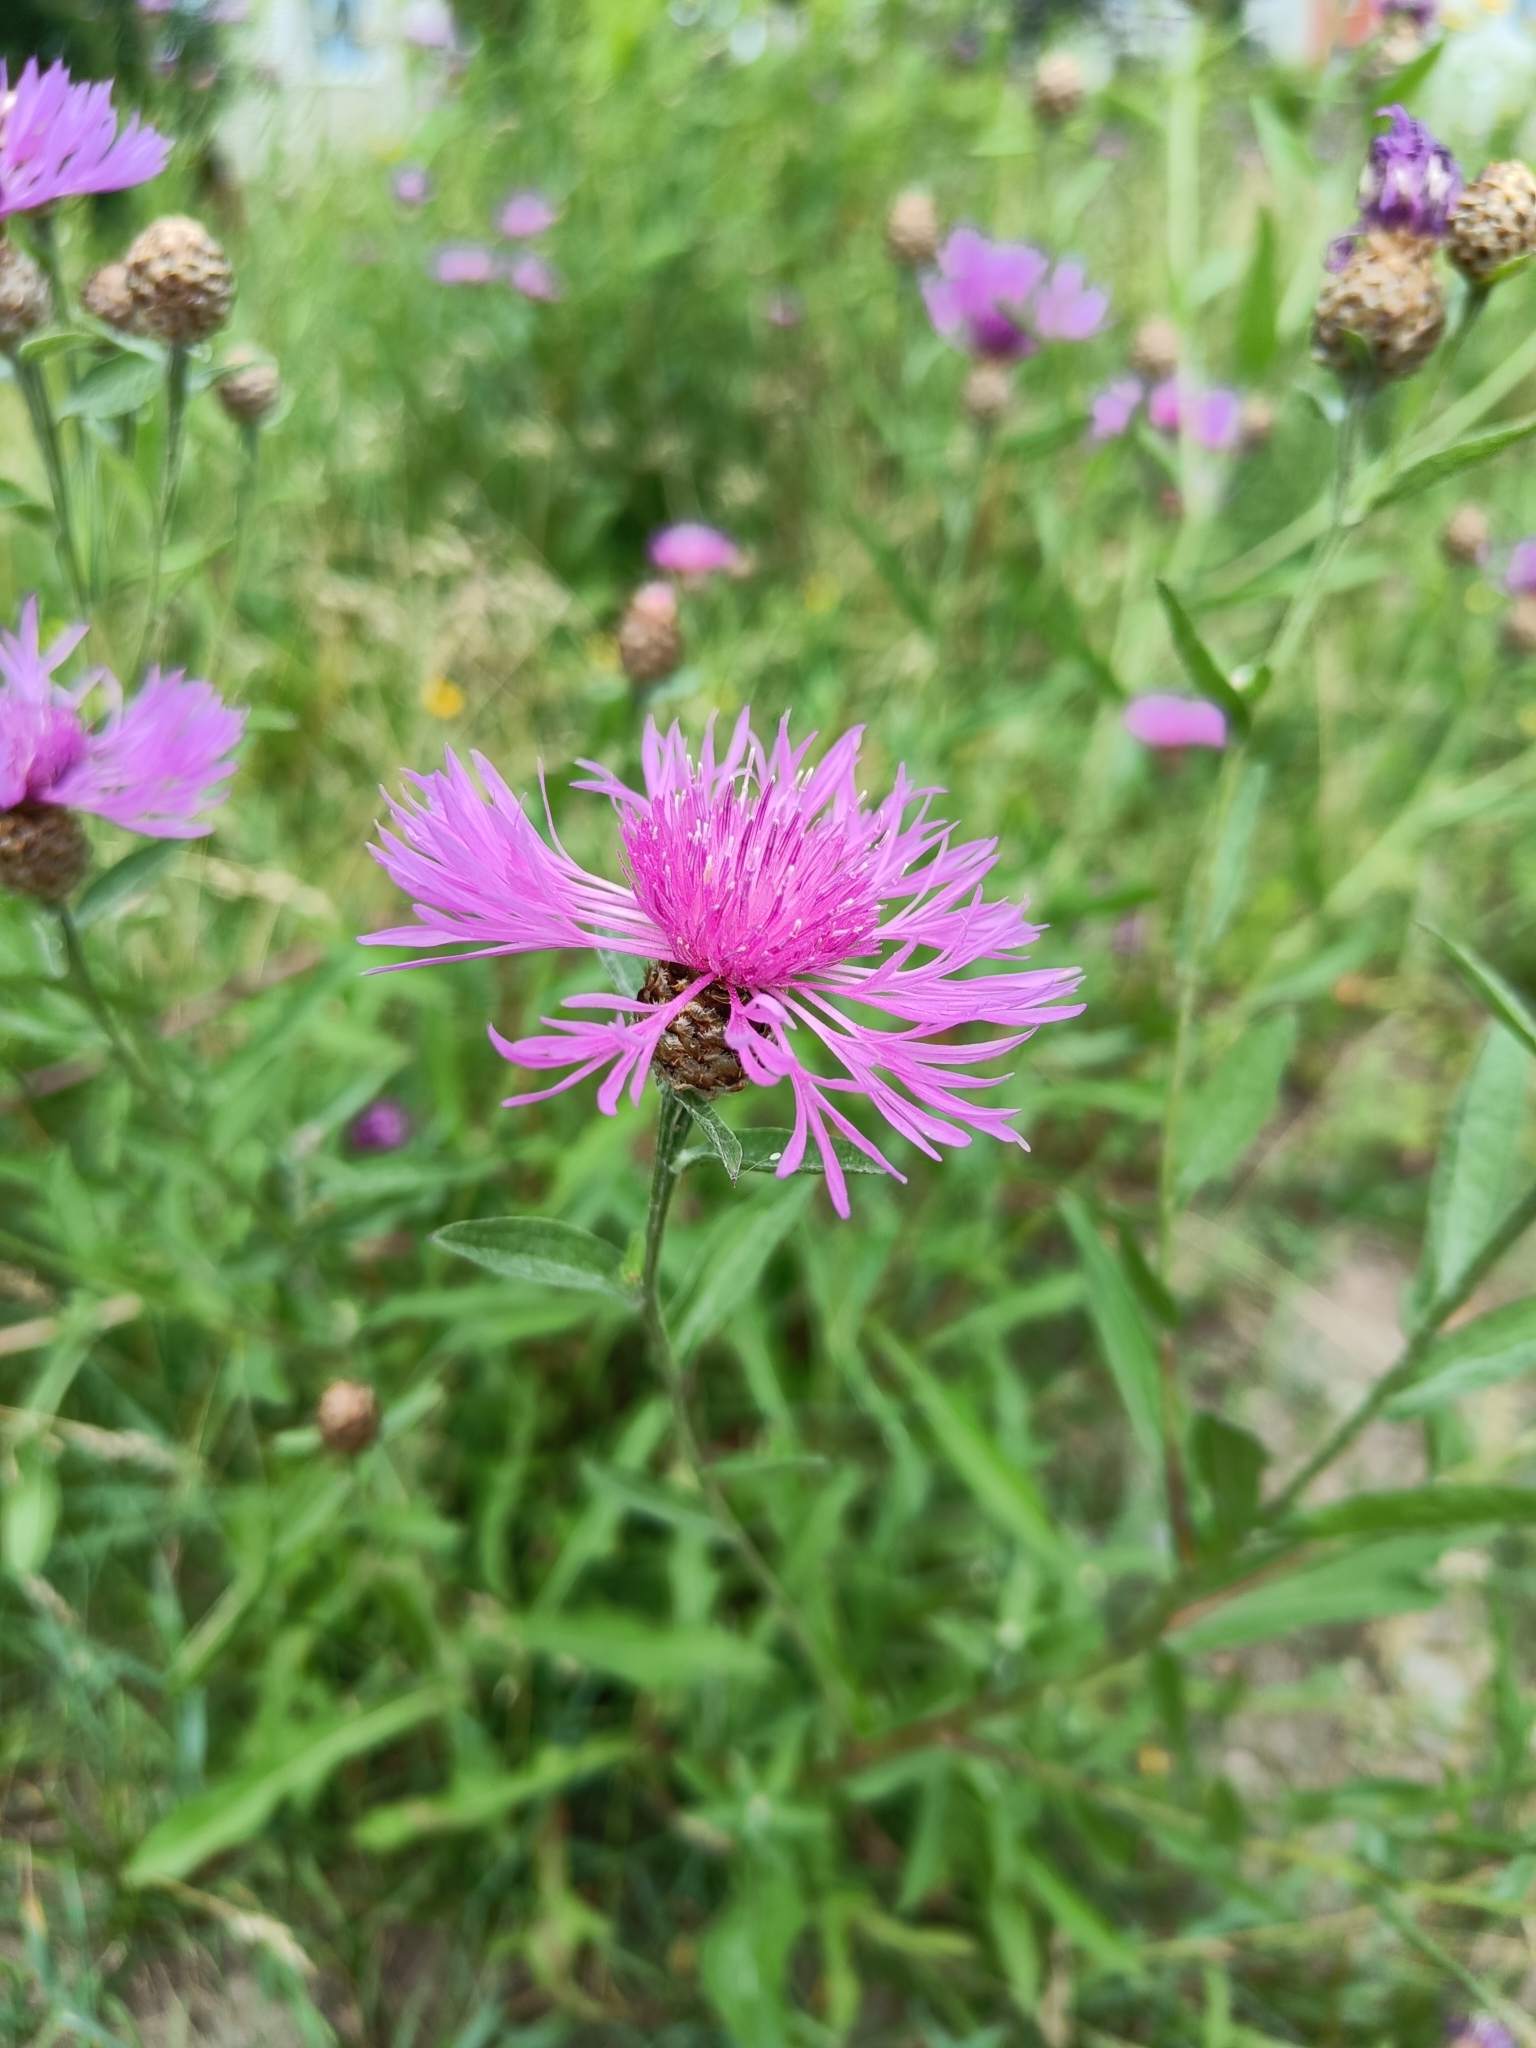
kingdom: Plantae
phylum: Tracheophyta
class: Magnoliopsida
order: Asterales
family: Asteraceae
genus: Centaurea
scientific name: Centaurea jacea
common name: Brown knapweed
